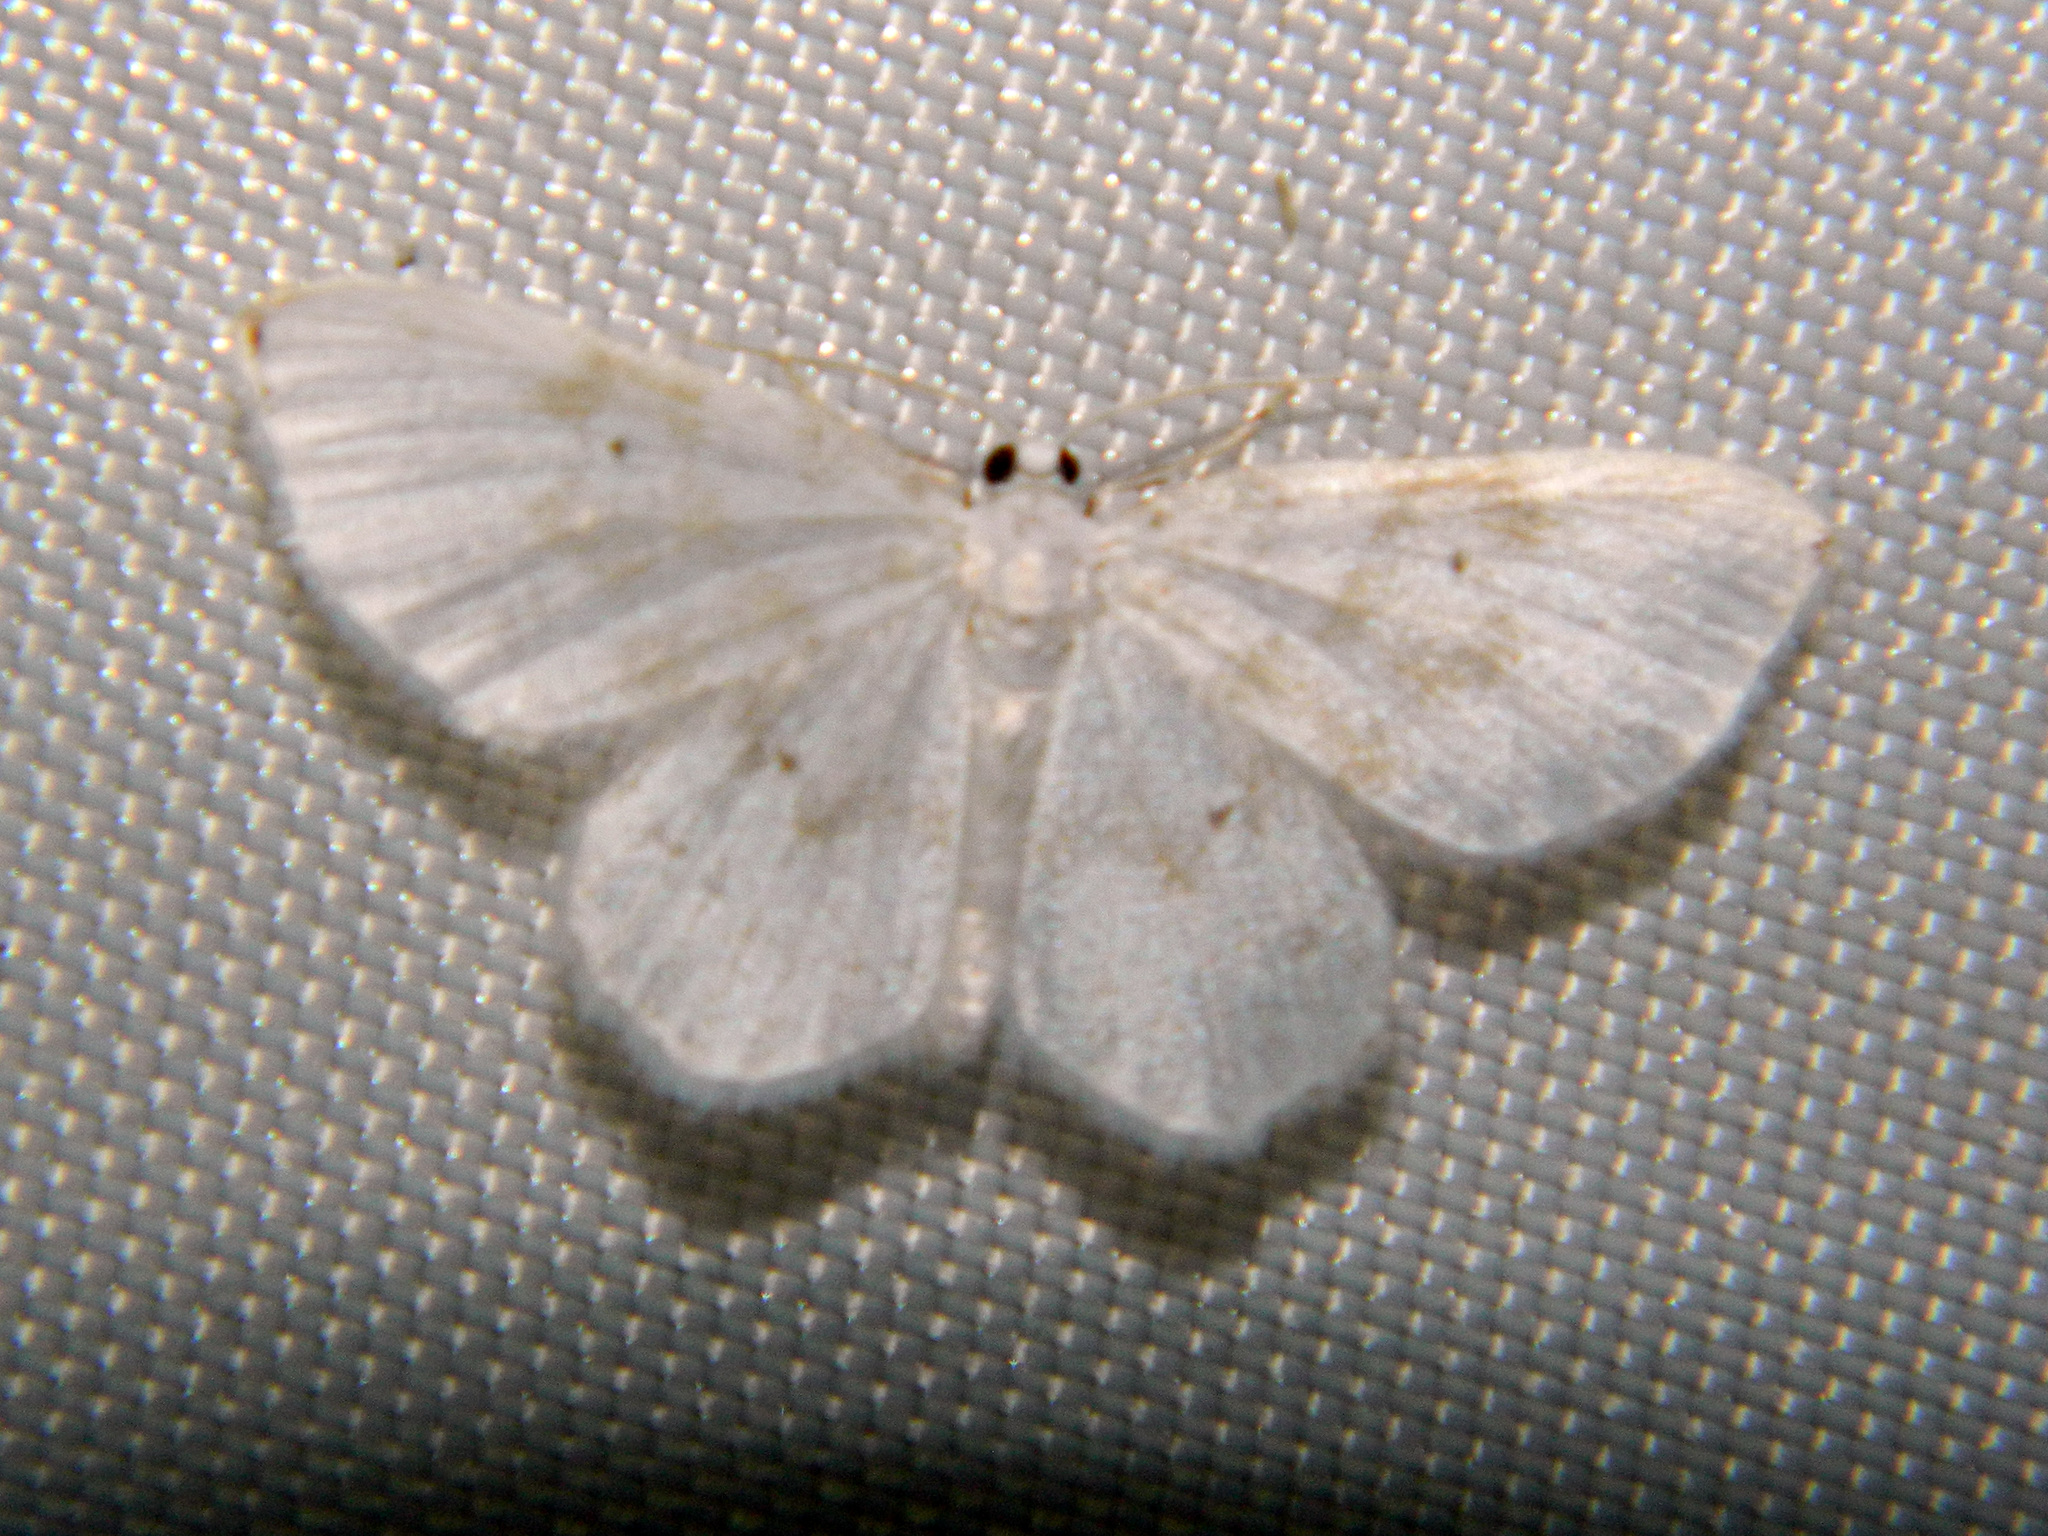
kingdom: Animalia
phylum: Arthropoda
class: Insecta
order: Lepidoptera
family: Geometridae
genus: Hydrelia
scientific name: Hydrelia albifera
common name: Fragile white carpet
